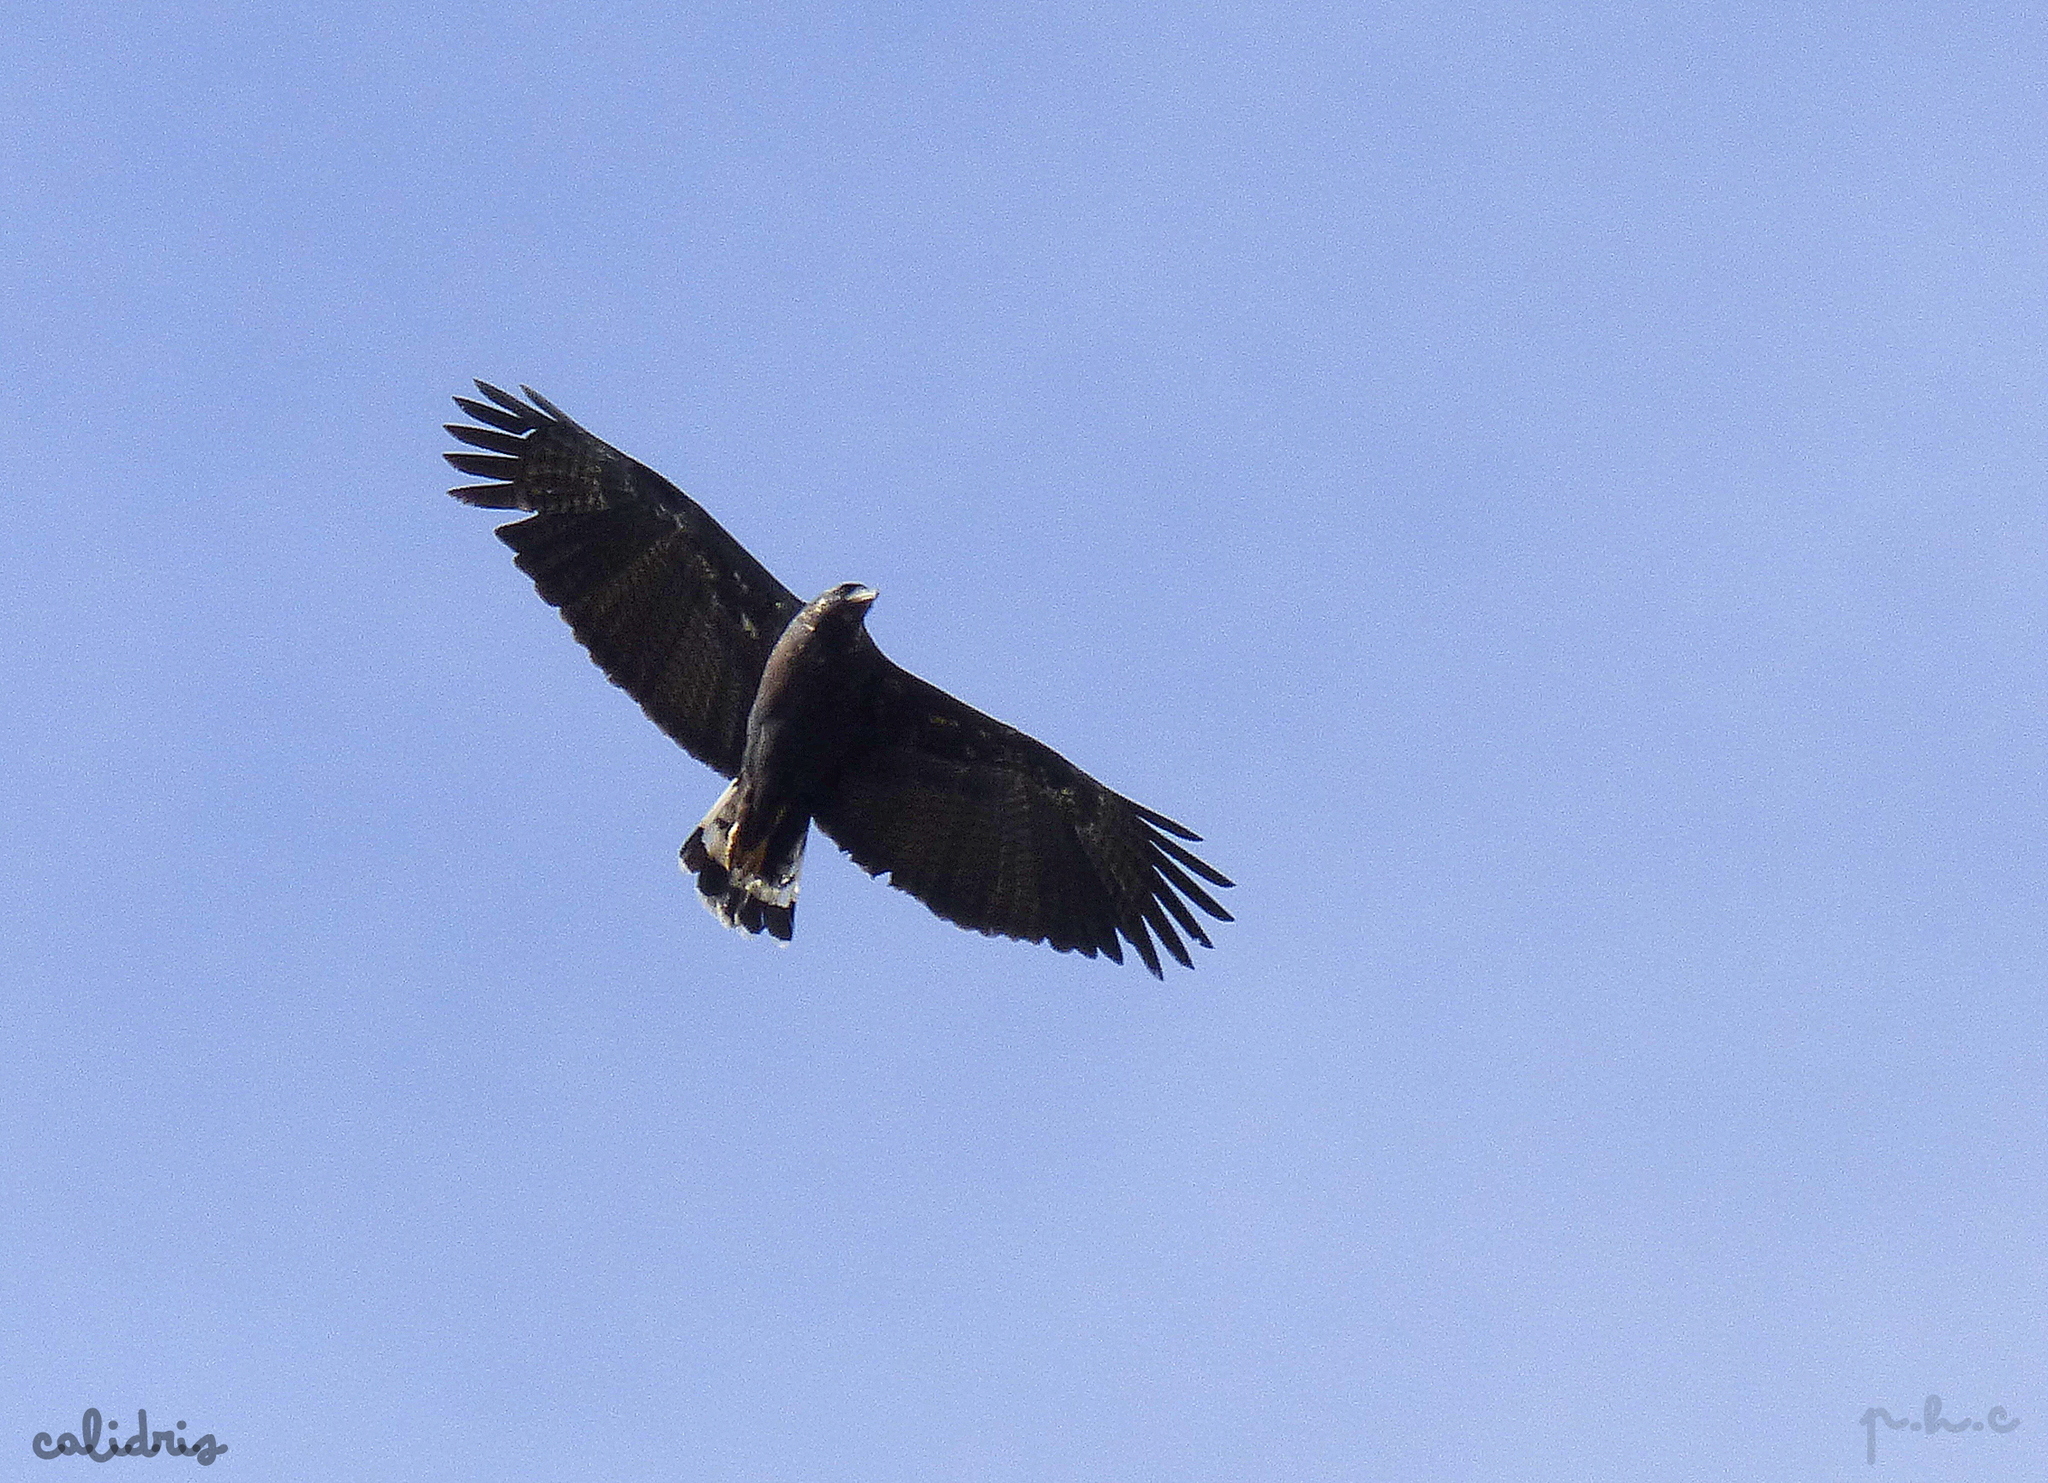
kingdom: Animalia
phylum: Chordata
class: Aves
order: Accipitriformes
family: Accipitridae
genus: Buteogallus
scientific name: Buteogallus urubitinga
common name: Great black hawk
